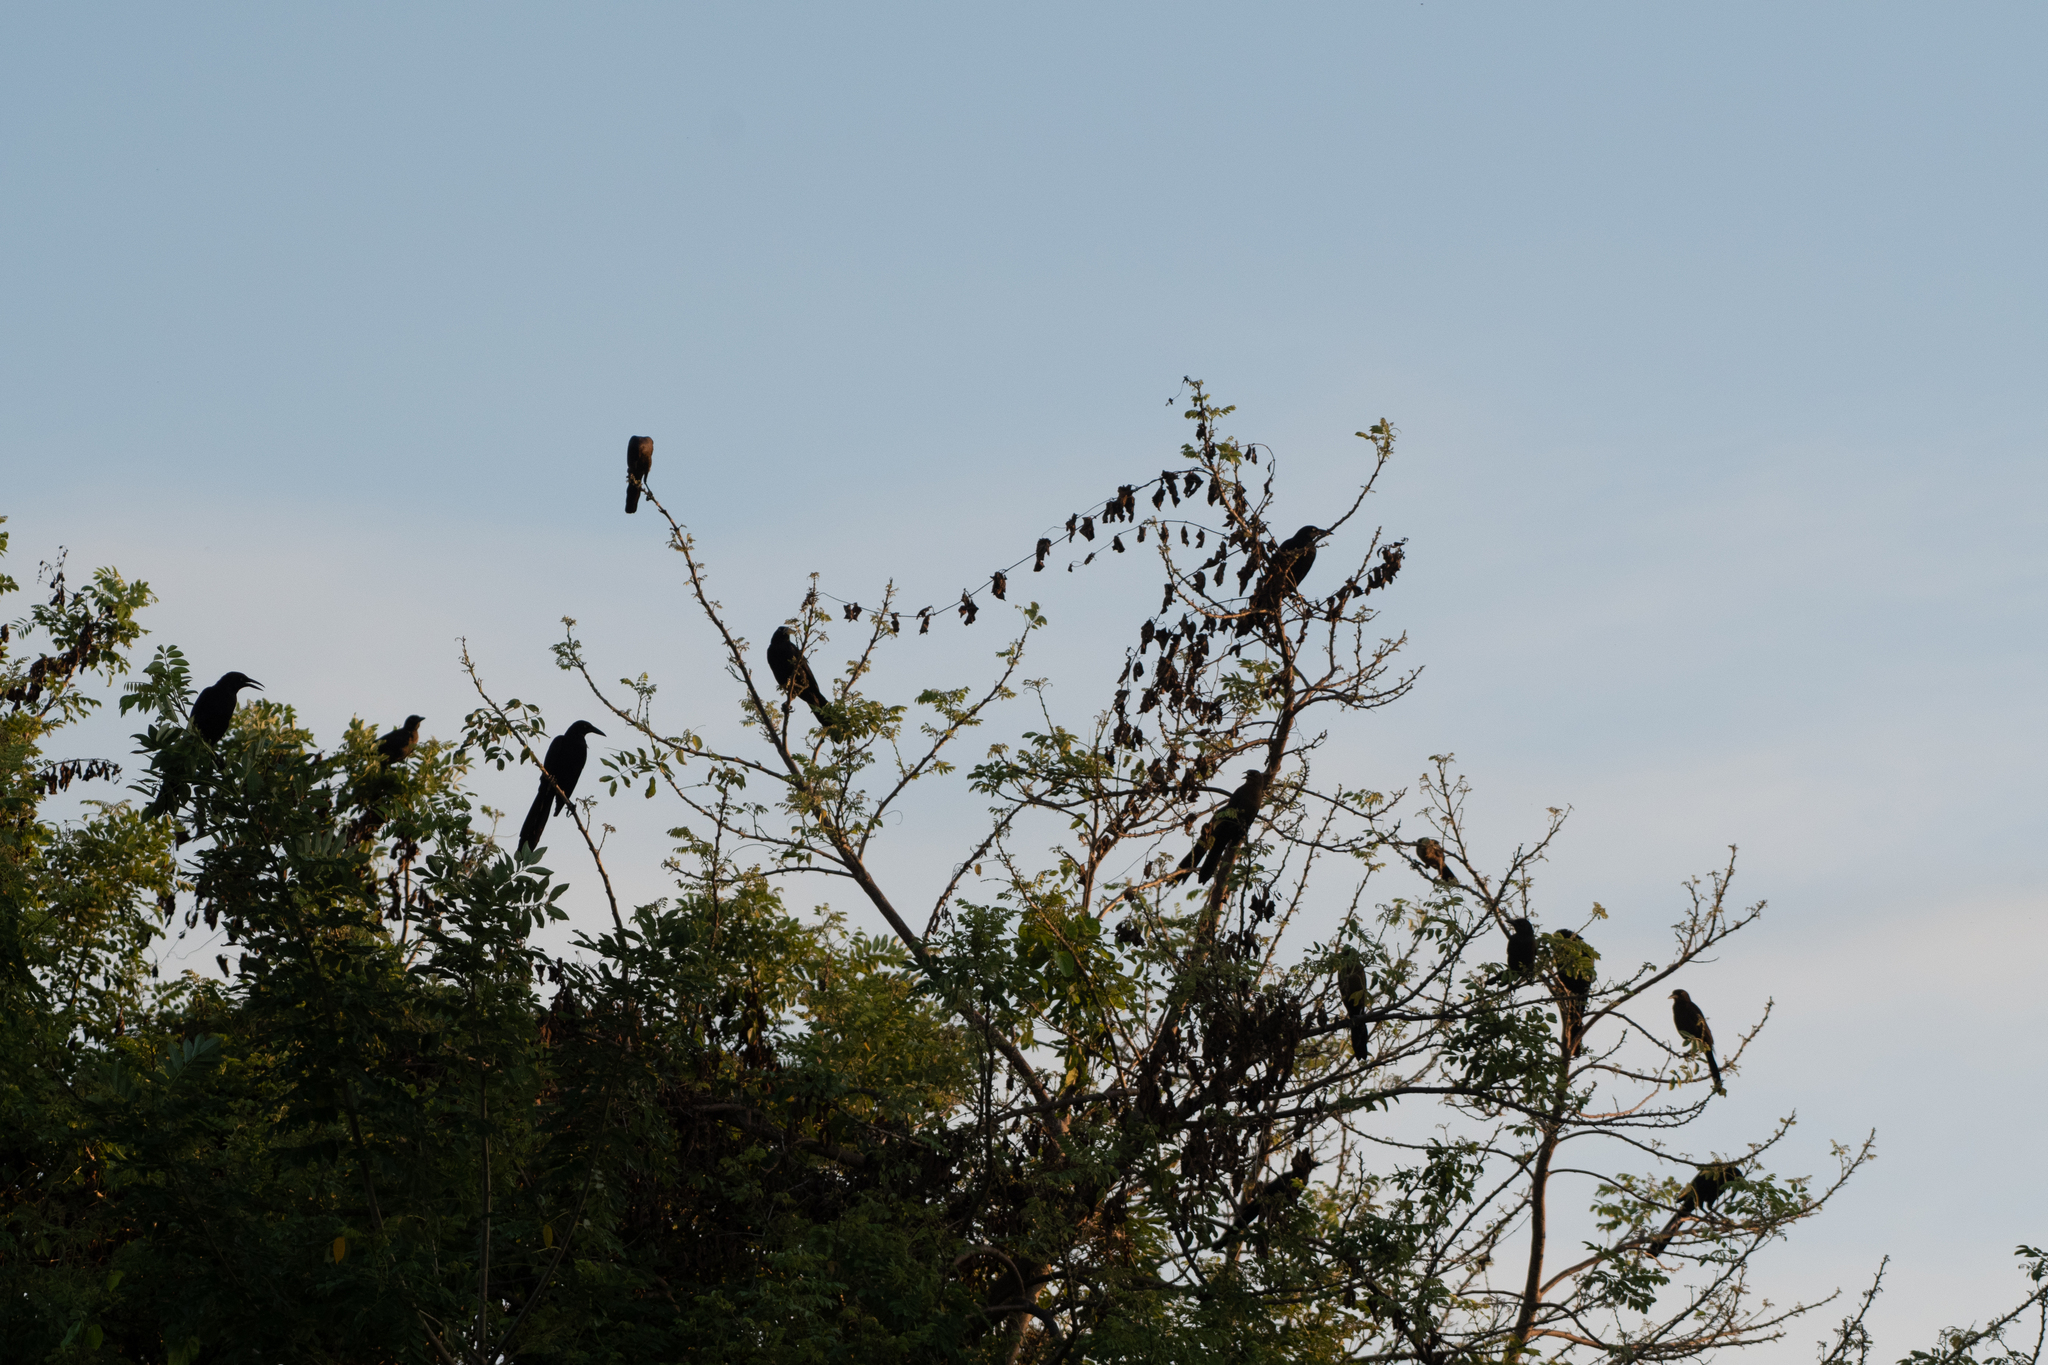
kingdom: Animalia
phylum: Chordata
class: Aves
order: Passeriformes
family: Icteridae
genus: Quiscalus
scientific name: Quiscalus mexicanus
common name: Great-tailed grackle
